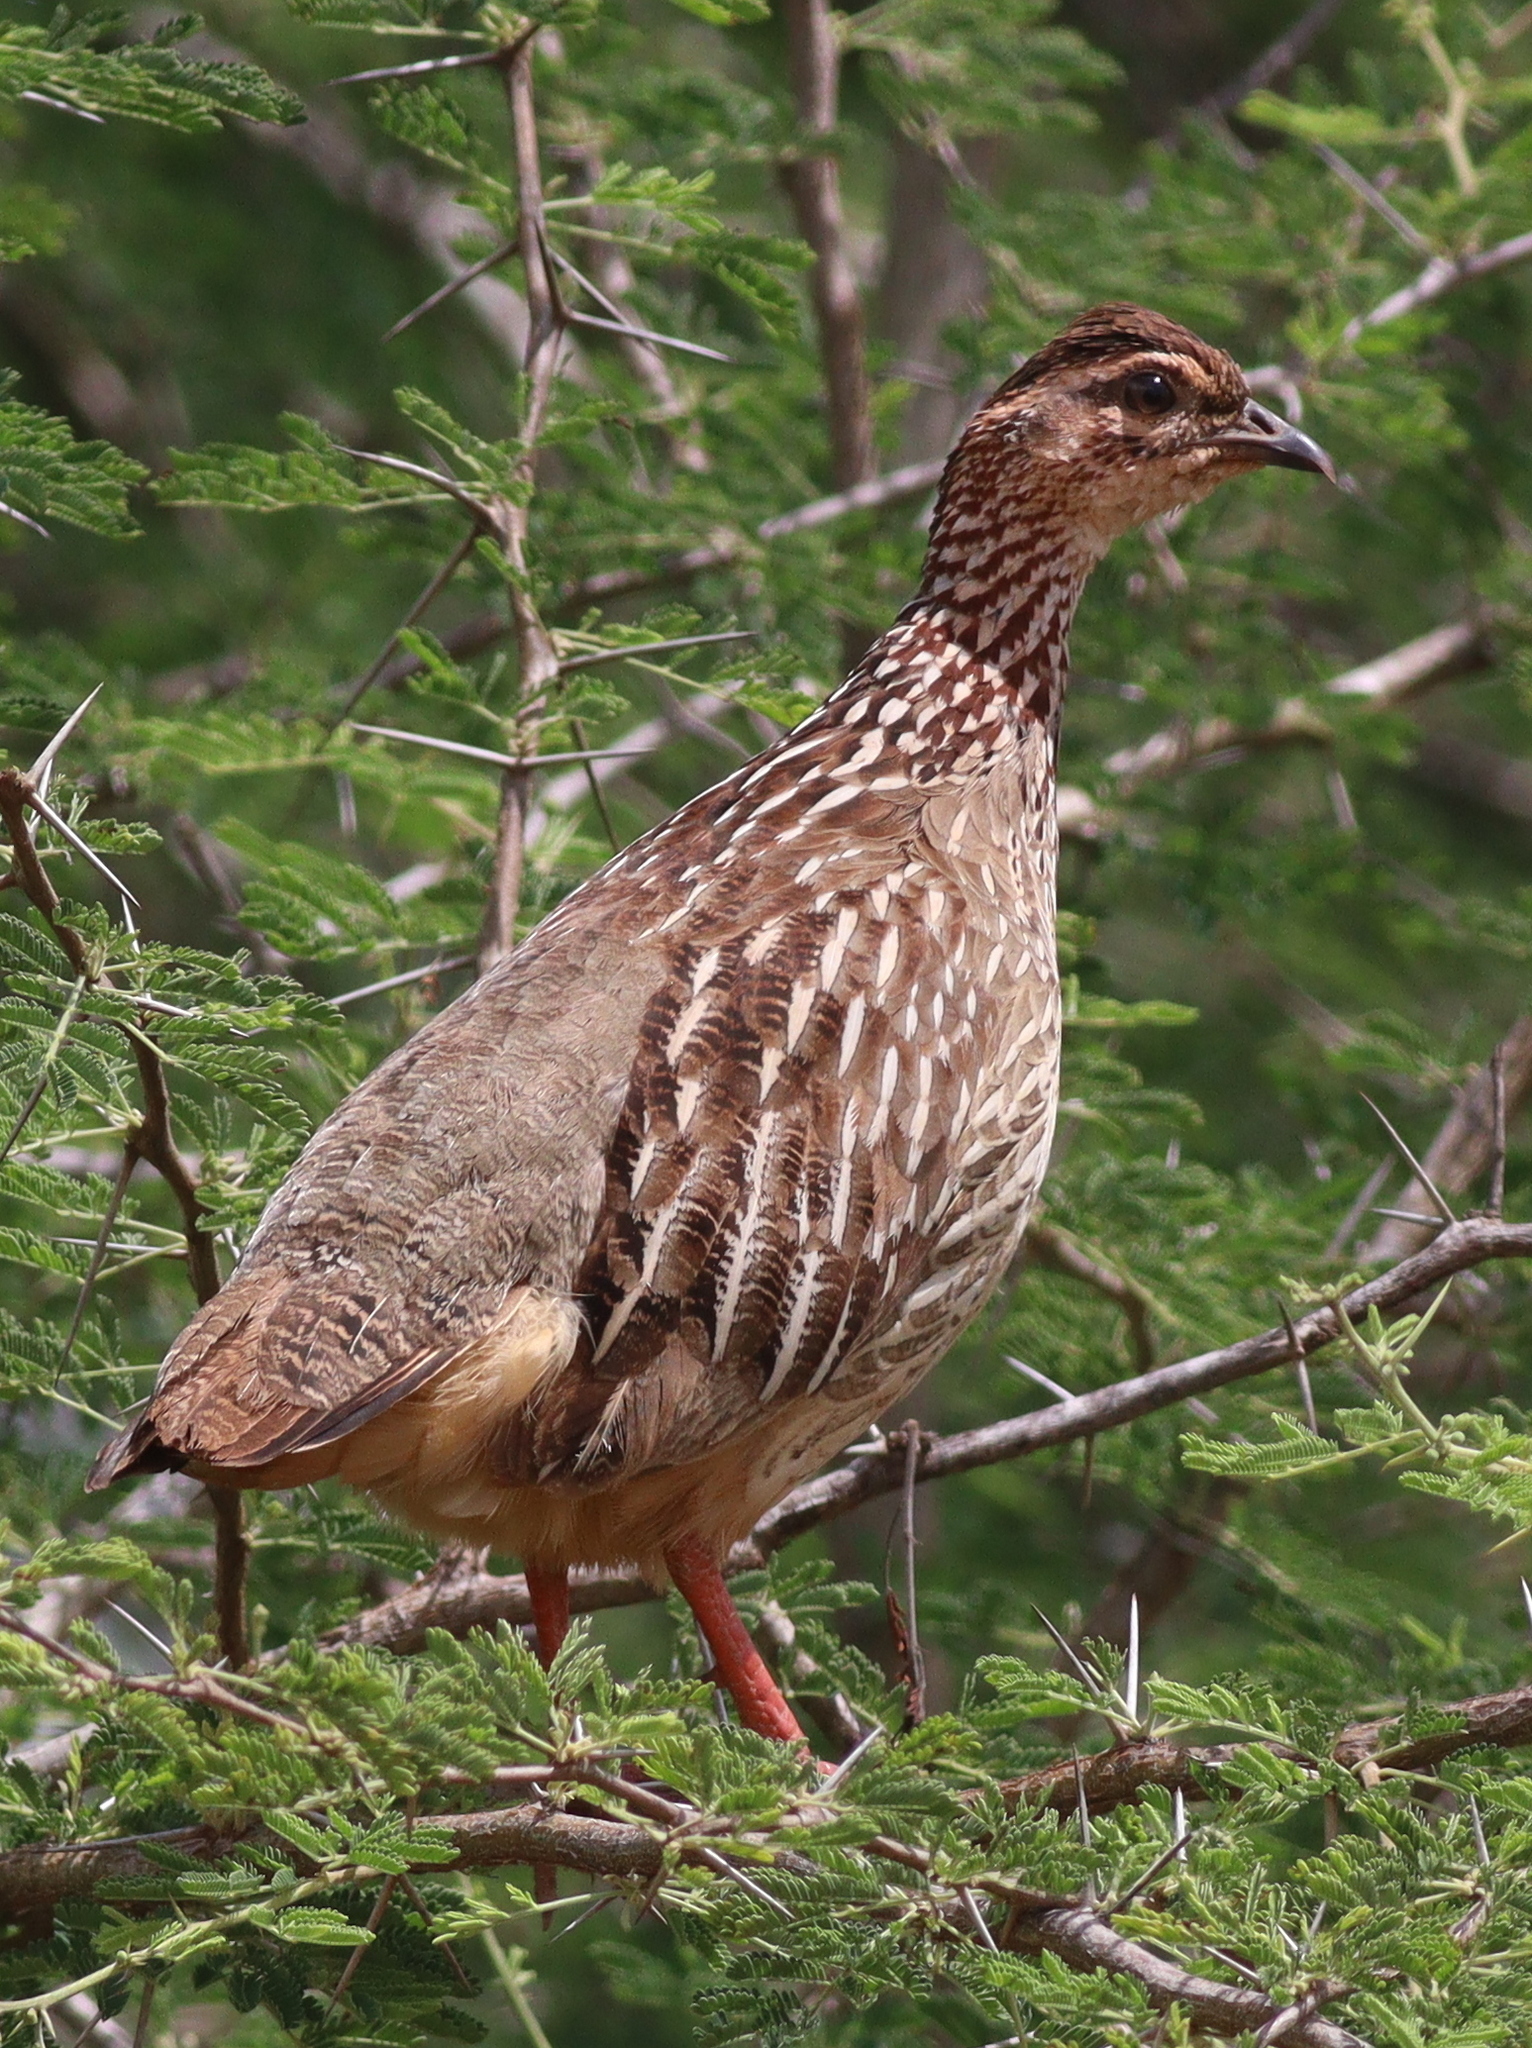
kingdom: Animalia
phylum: Chordata
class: Aves
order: Galliformes
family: Phasianidae
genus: Ortygornis
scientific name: Ortygornis sephaena
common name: Crested francolin
